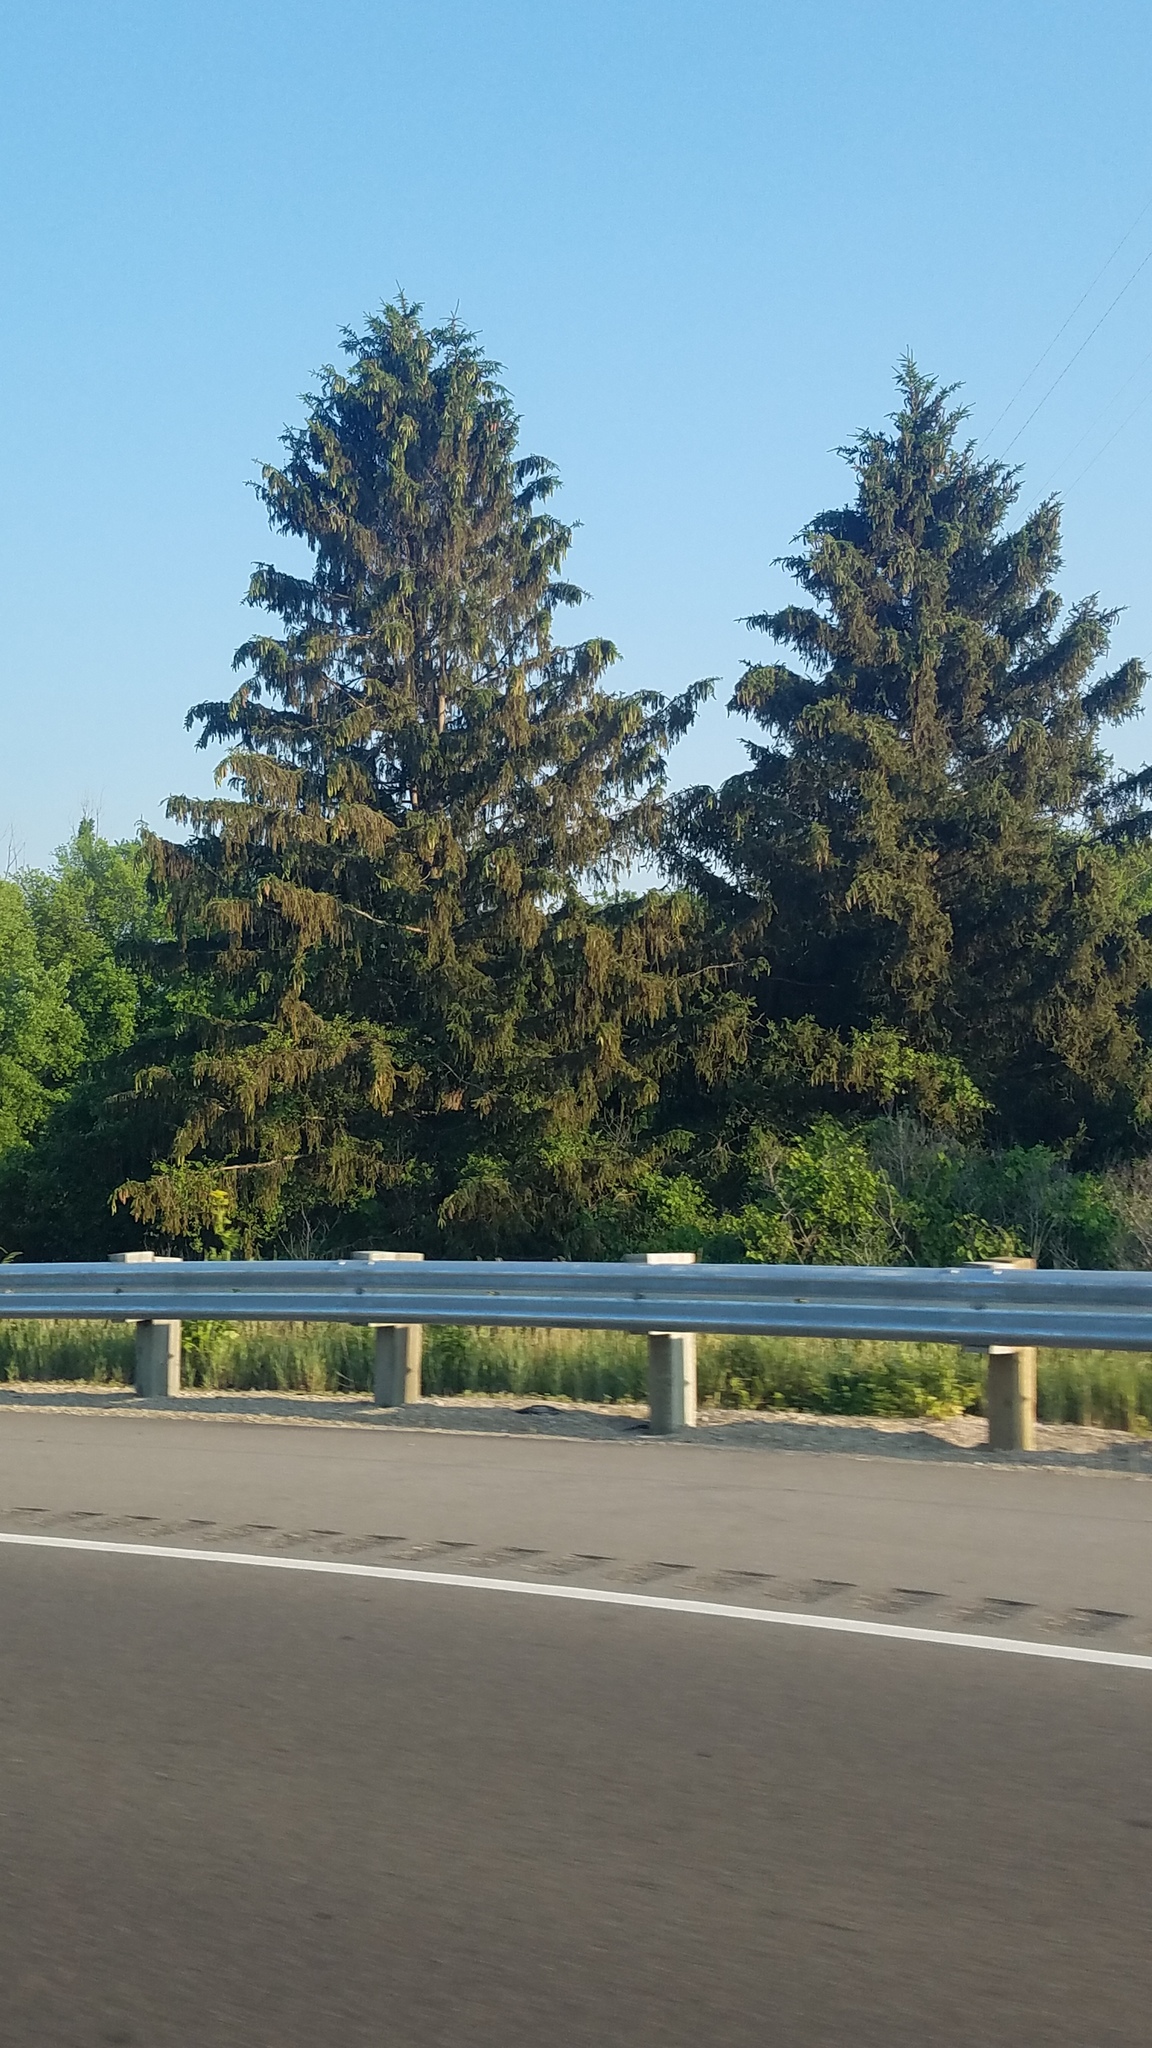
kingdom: Plantae
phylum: Tracheophyta
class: Pinopsida
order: Pinales
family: Pinaceae
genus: Picea
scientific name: Picea abies
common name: Norway spruce
